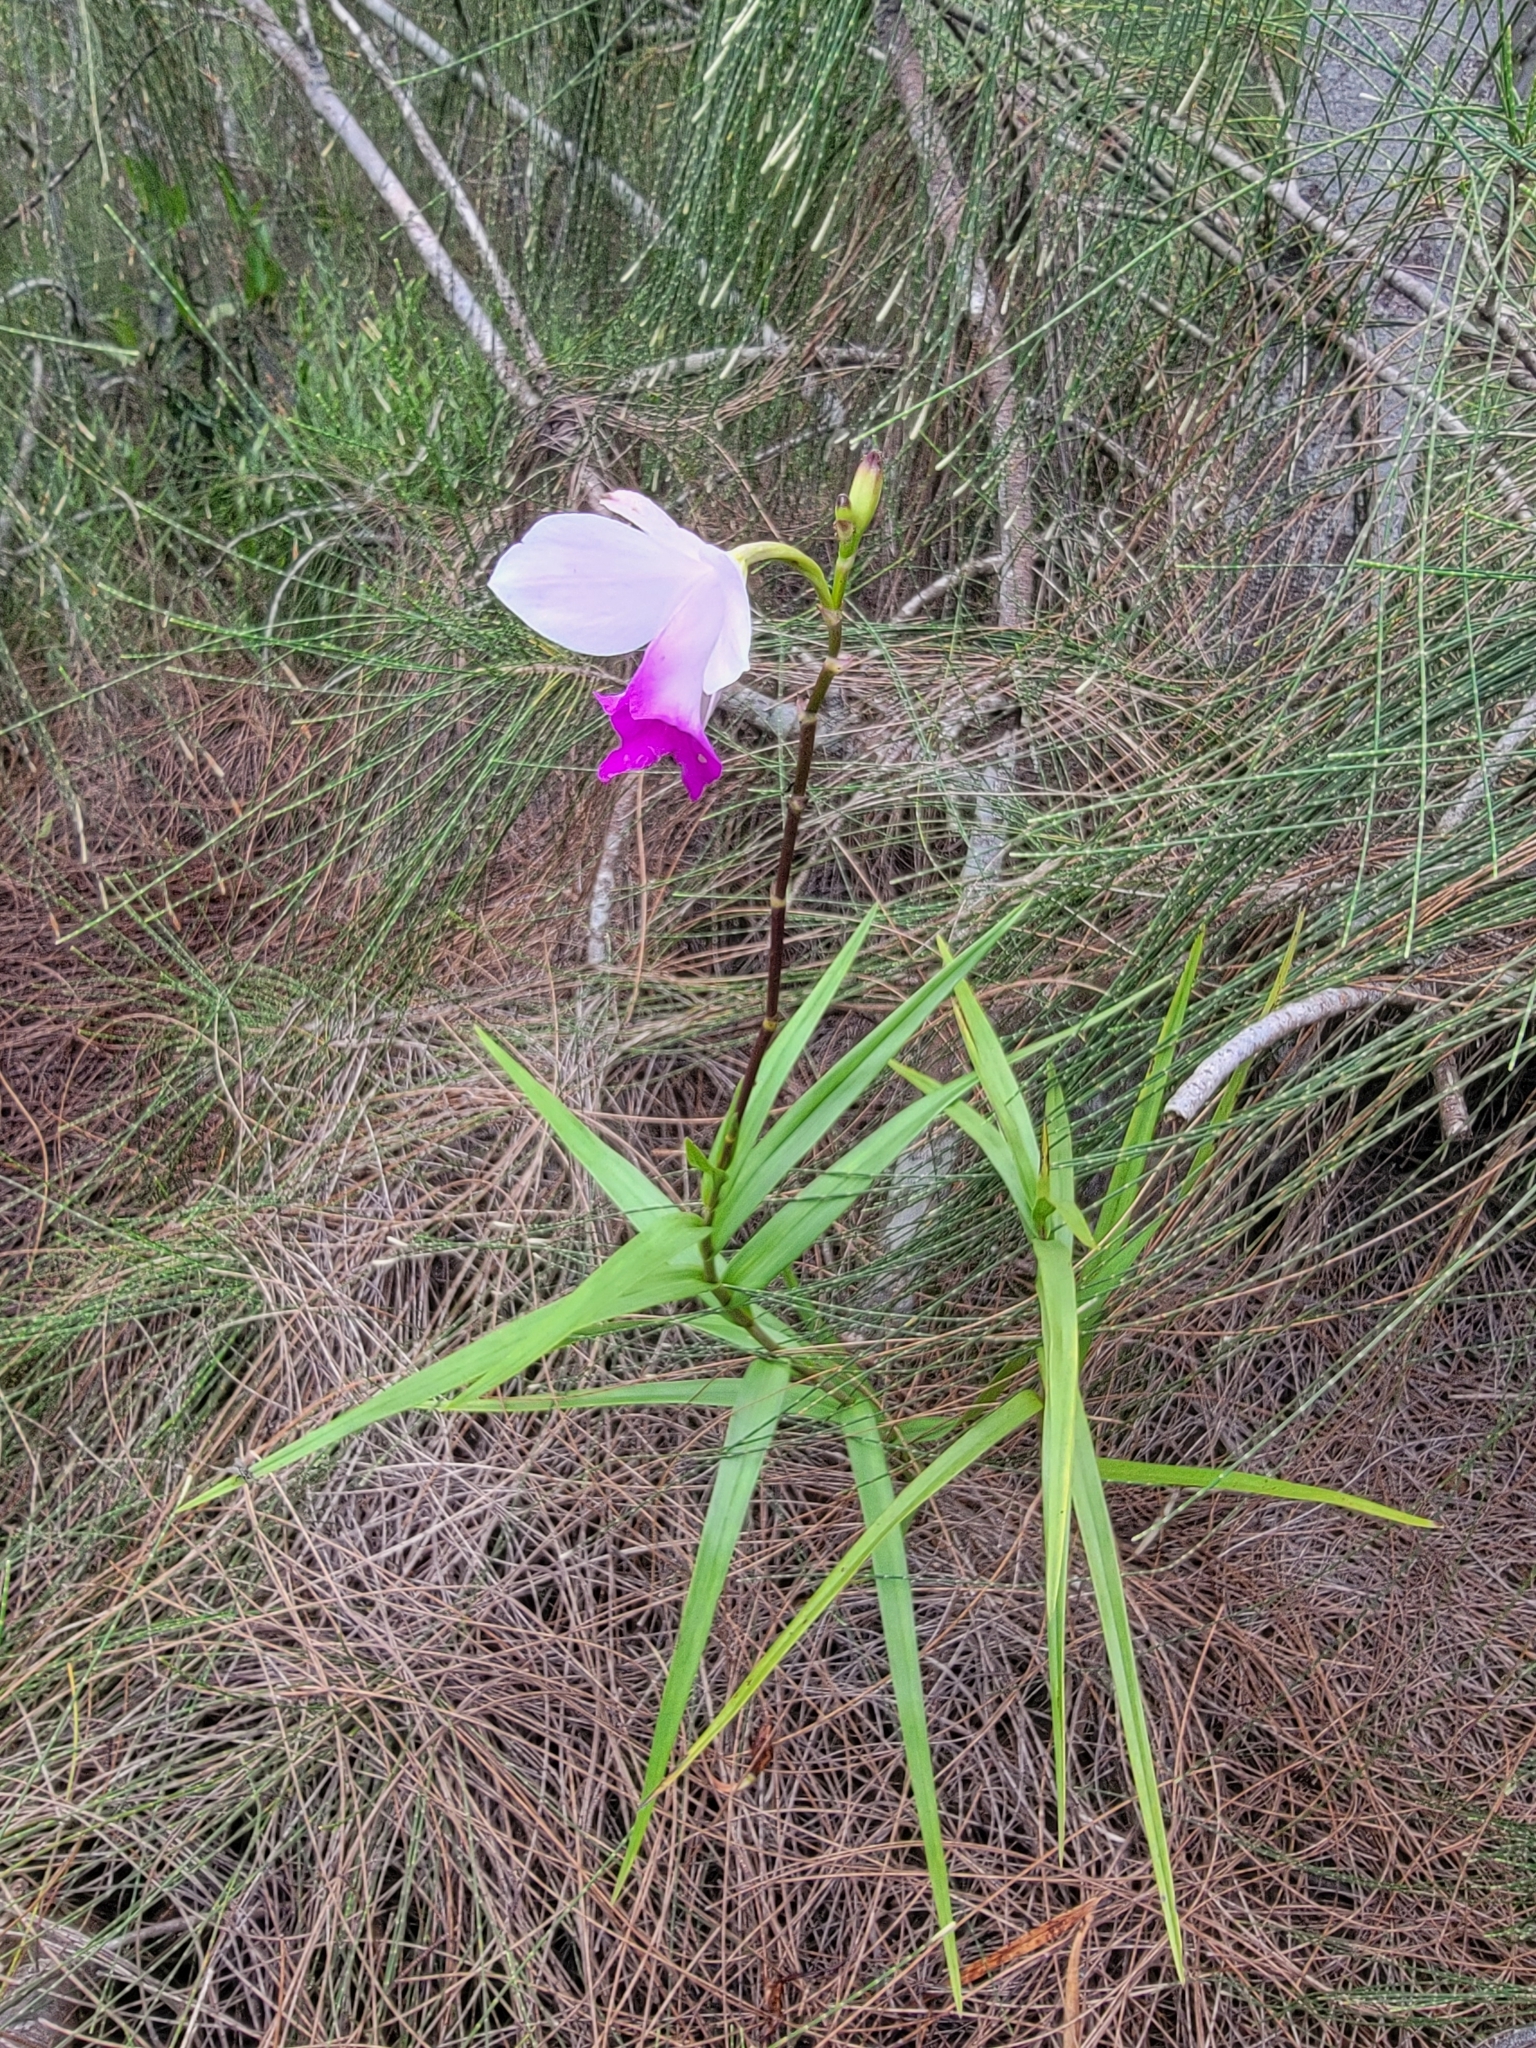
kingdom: Plantae
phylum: Tracheophyta
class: Liliopsida
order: Asparagales
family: Orchidaceae
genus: Arundina
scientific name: Arundina graminifolia
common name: Bamboo orchid
